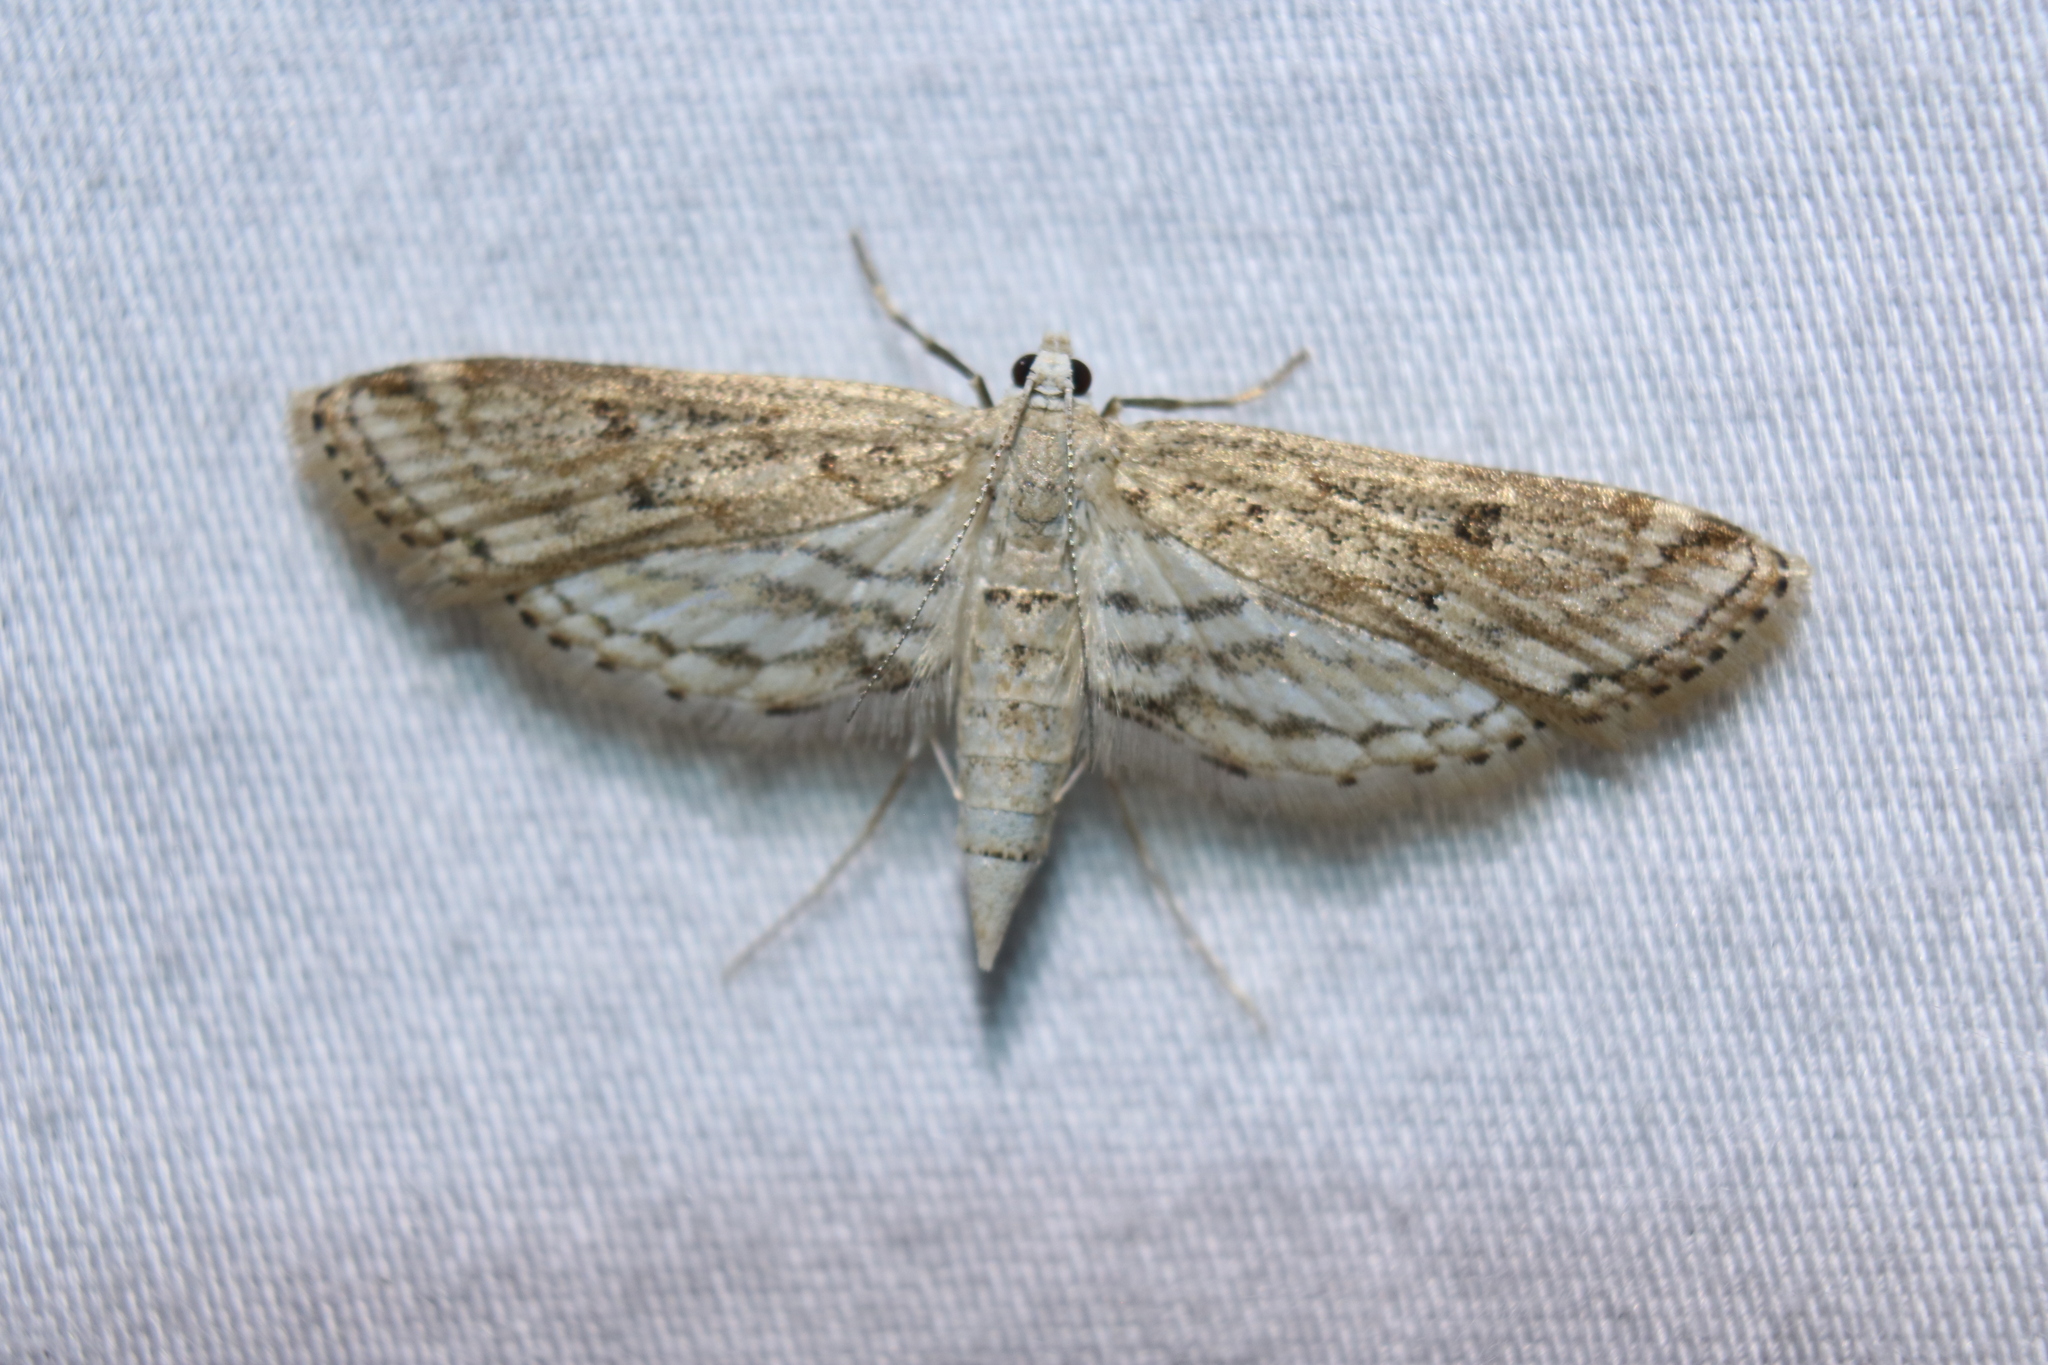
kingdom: Animalia
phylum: Arthropoda
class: Insecta
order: Lepidoptera
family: Crambidae
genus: Parapoynx
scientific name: Parapoynx allionealis
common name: Bladderwort casemaker
